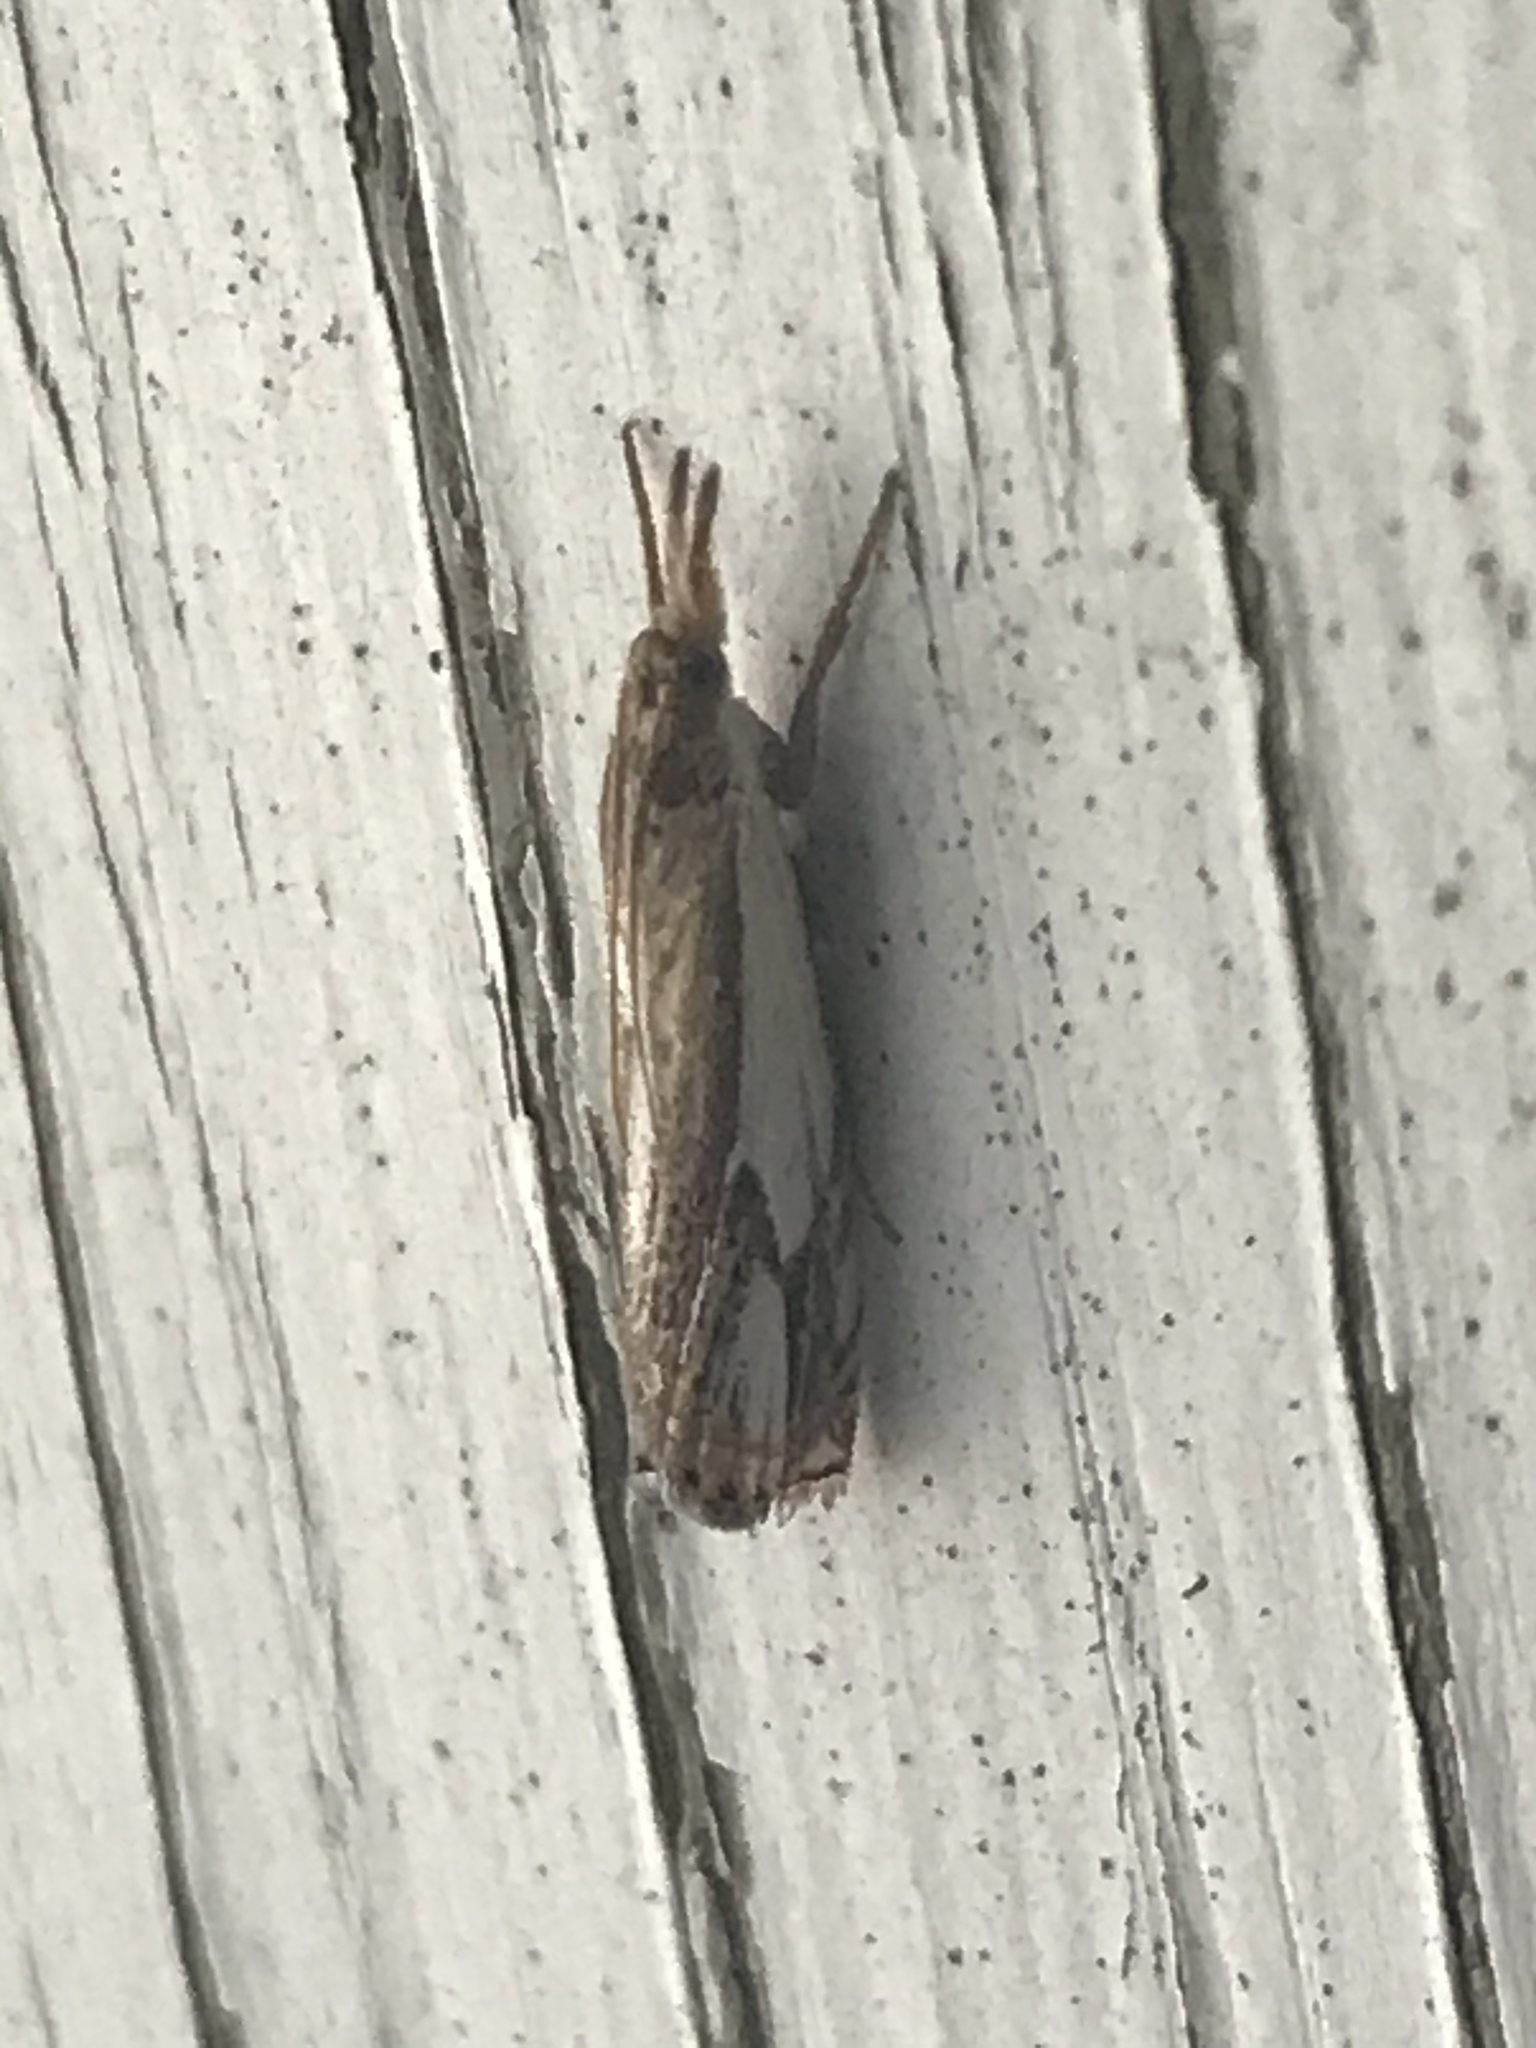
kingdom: Animalia
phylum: Arthropoda
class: Insecta
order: Lepidoptera
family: Crambidae
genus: Crambus
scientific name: Crambus agitatellus
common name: Double-banded grass-veneer
